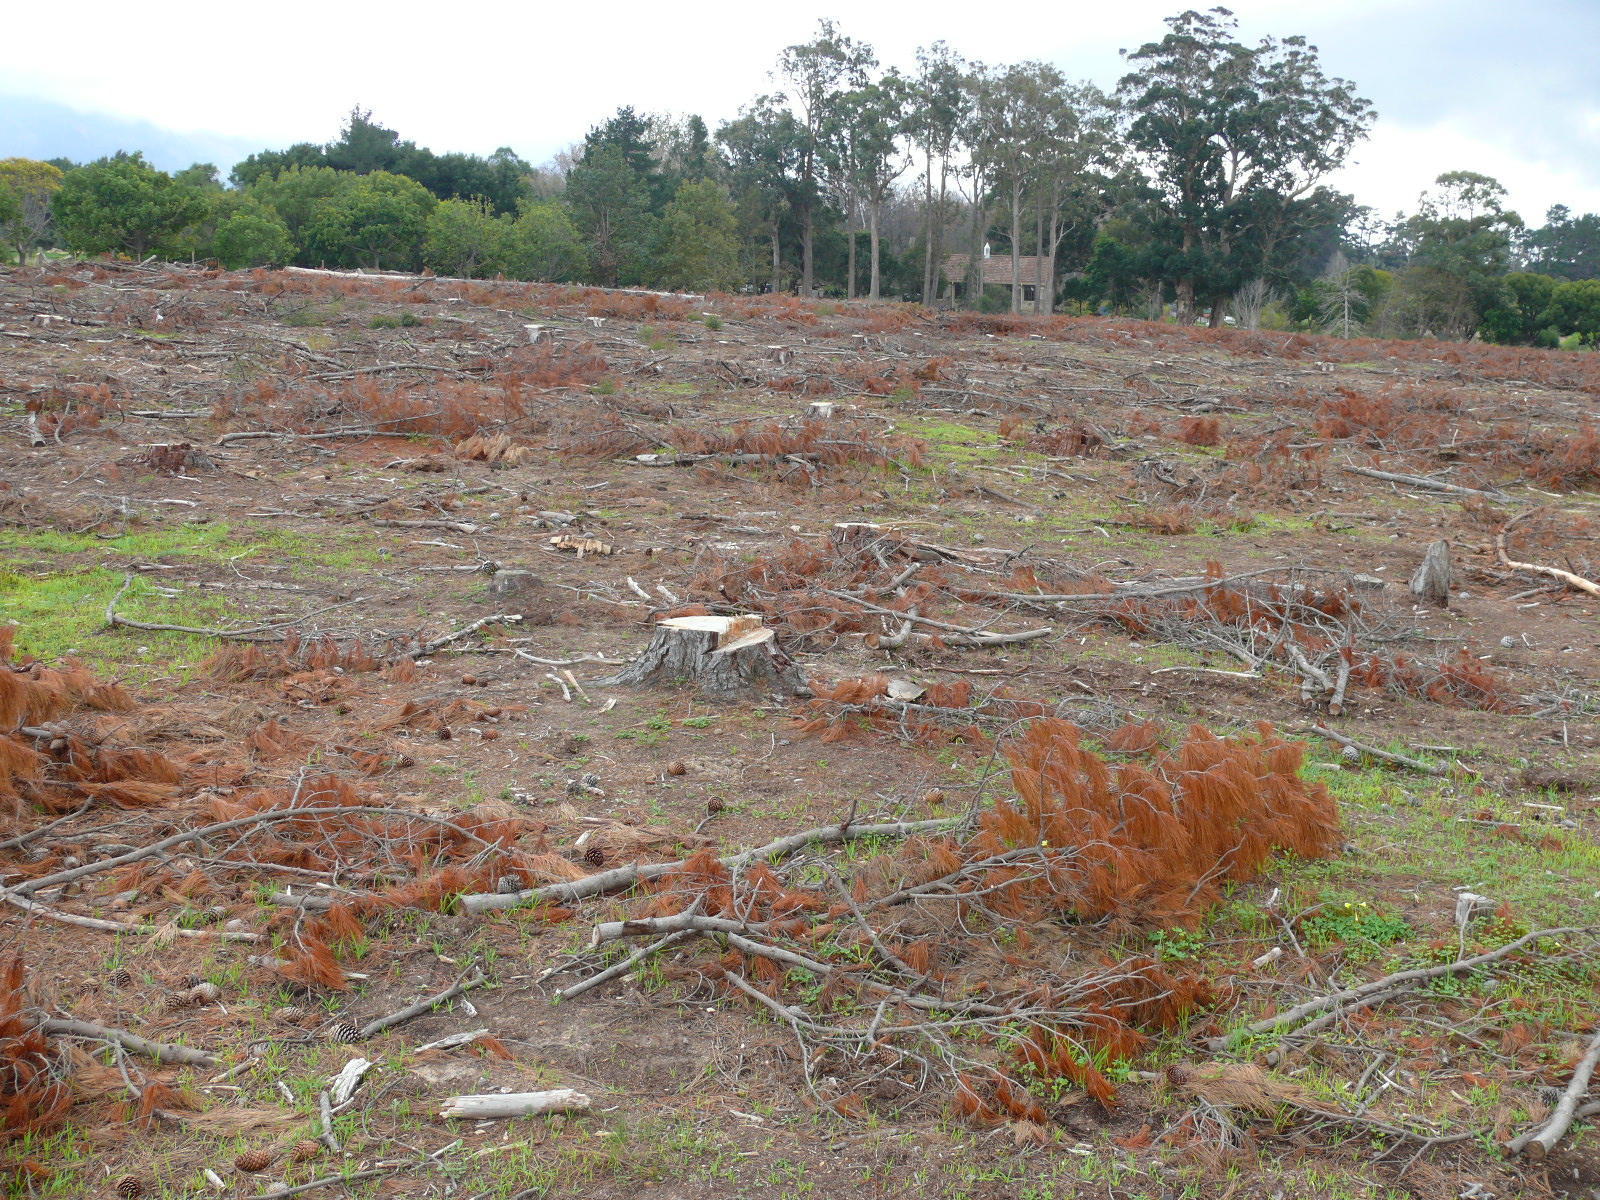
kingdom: Plantae
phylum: Tracheophyta
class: Pinopsida
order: Pinales
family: Pinaceae
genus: Pinus
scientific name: Pinus radiata
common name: Monterey pine
